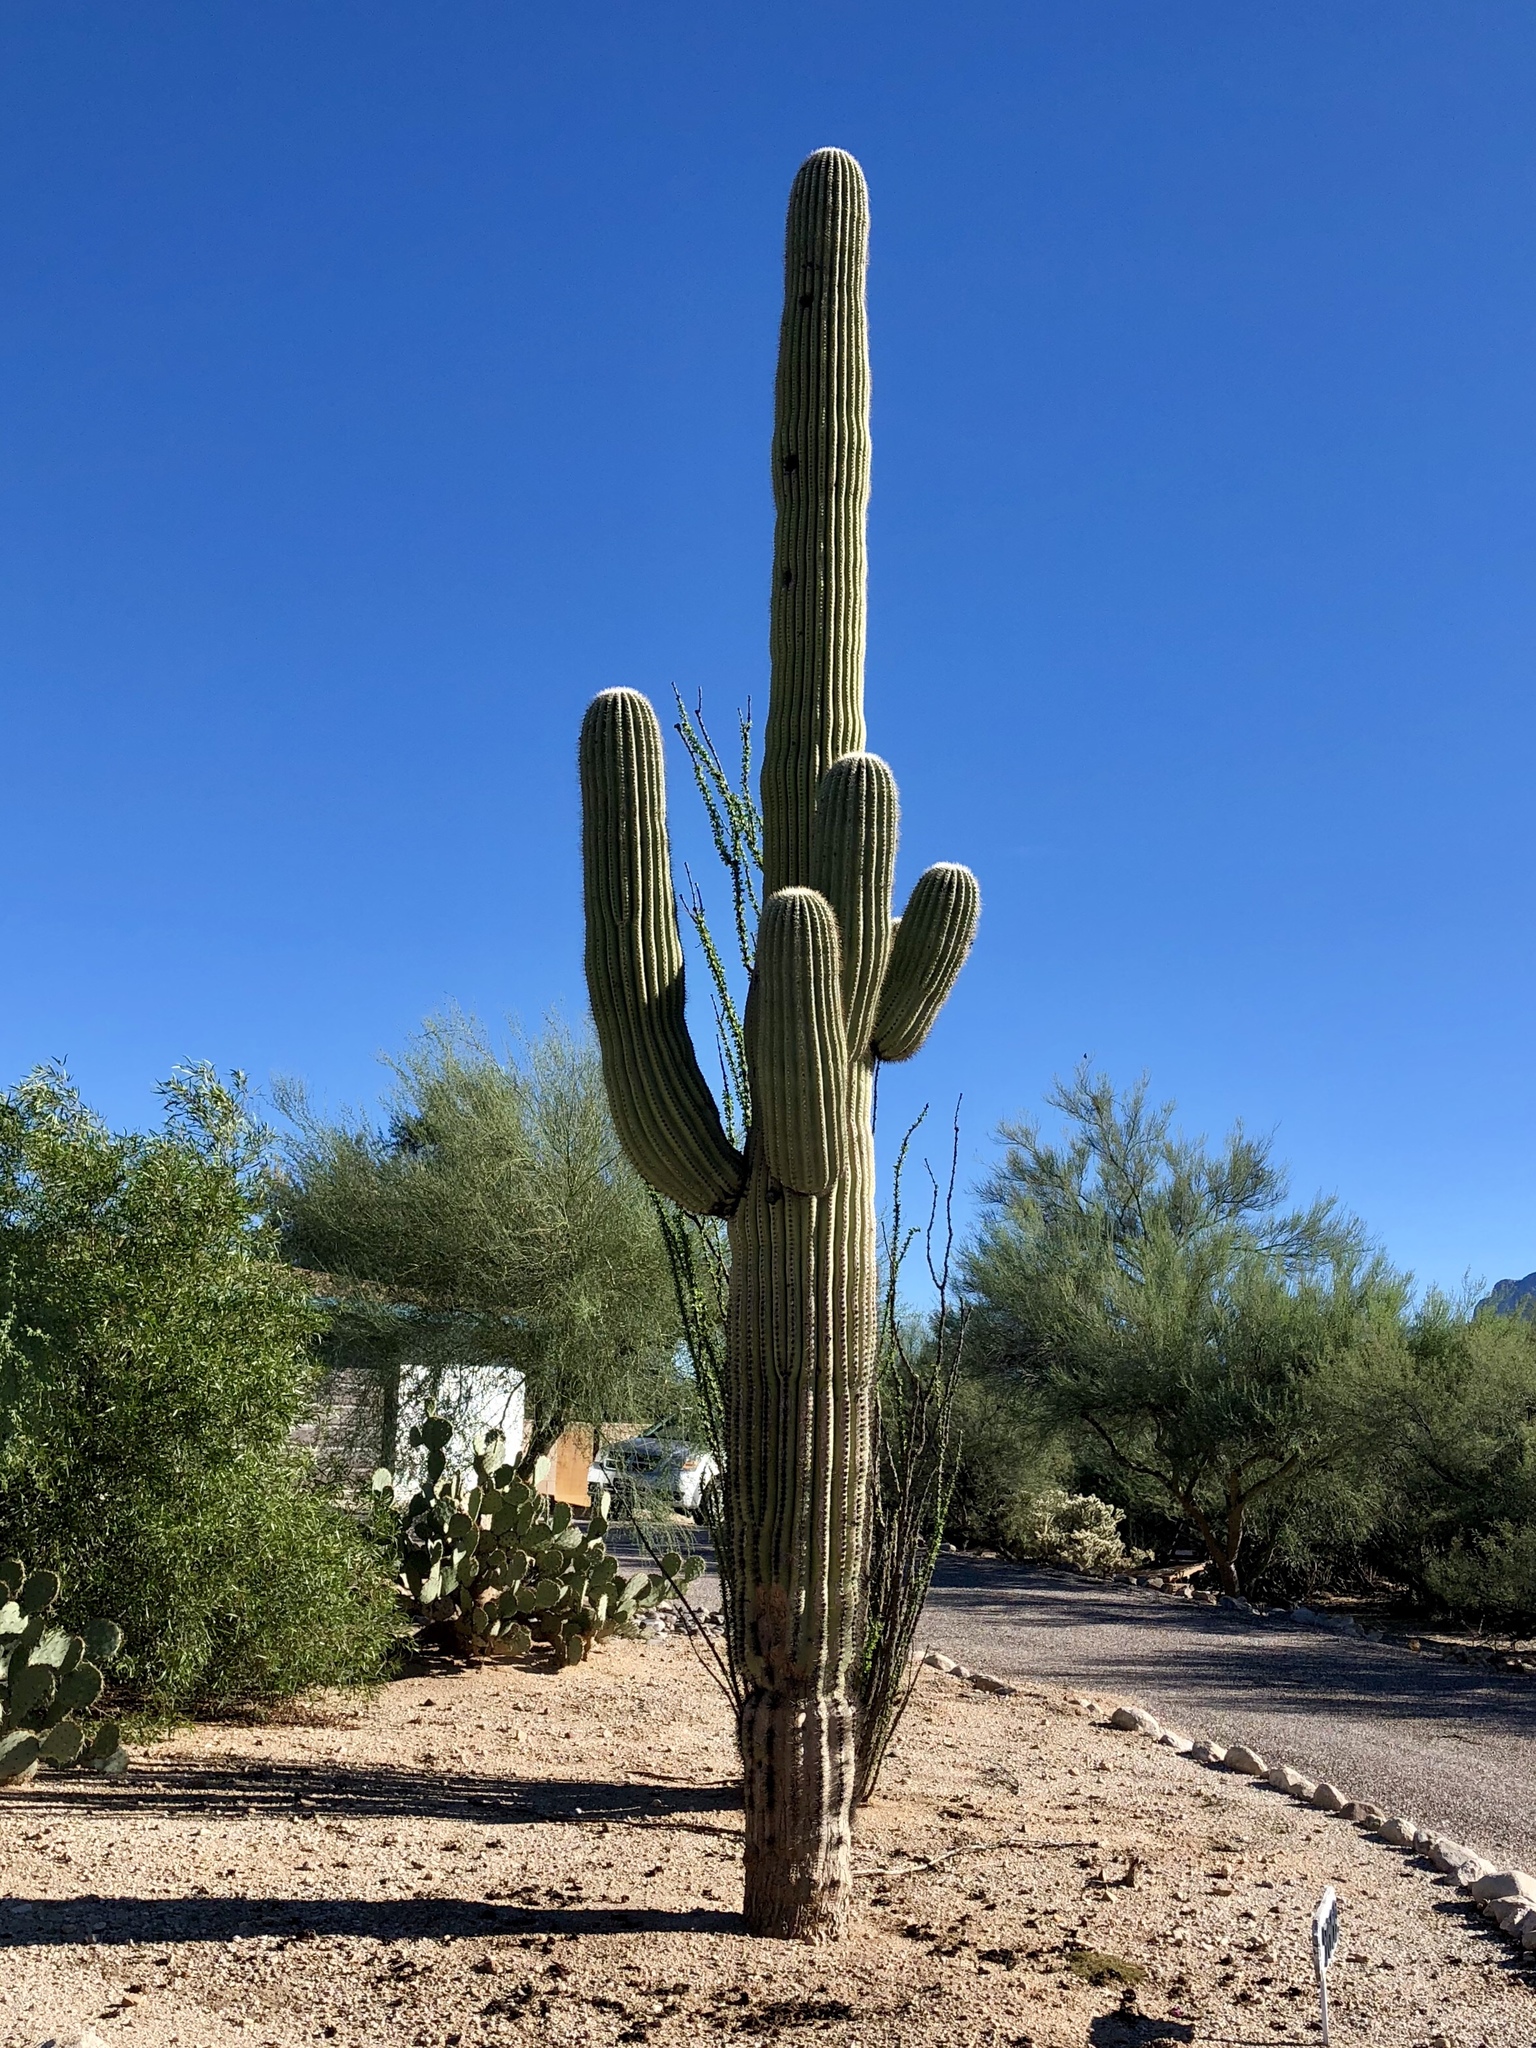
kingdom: Plantae
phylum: Tracheophyta
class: Magnoliopsida
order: Caryophyllales
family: Cactaceae
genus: Carnegiea
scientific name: Carnegiea gigantea
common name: Saguaro
